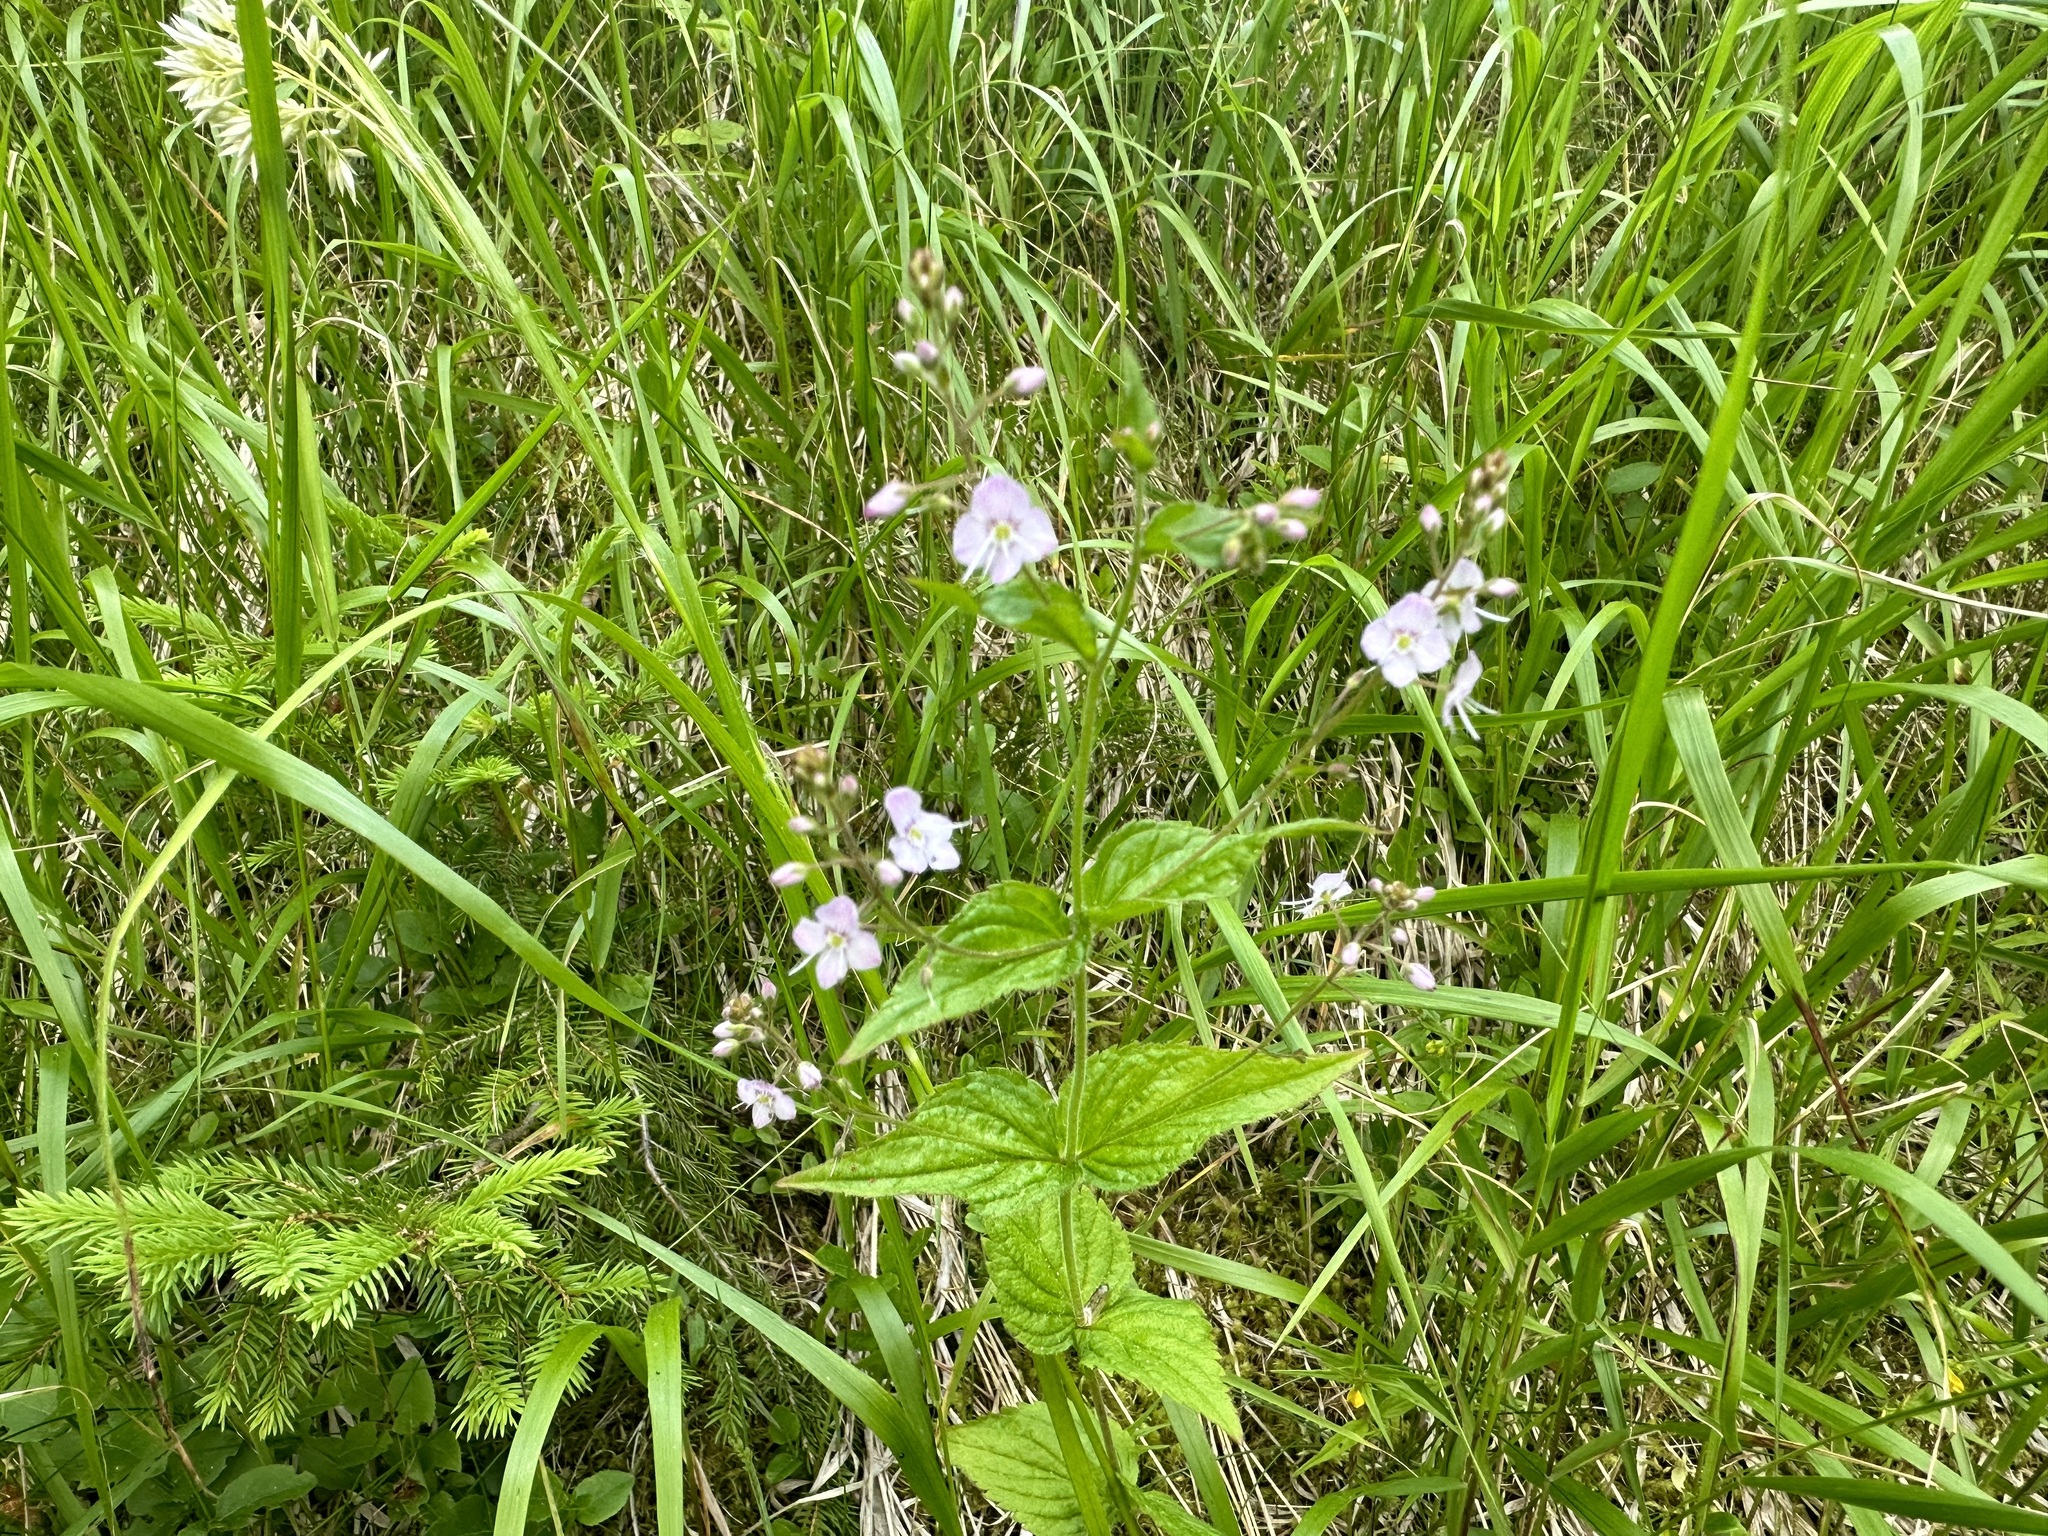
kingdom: Plantae
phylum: Tracheophyta
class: Magnoliopsida
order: Lamiales
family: Plantaginaceae
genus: Veronica
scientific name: Veronica urticifolia
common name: Nettle-leaf speedwell
